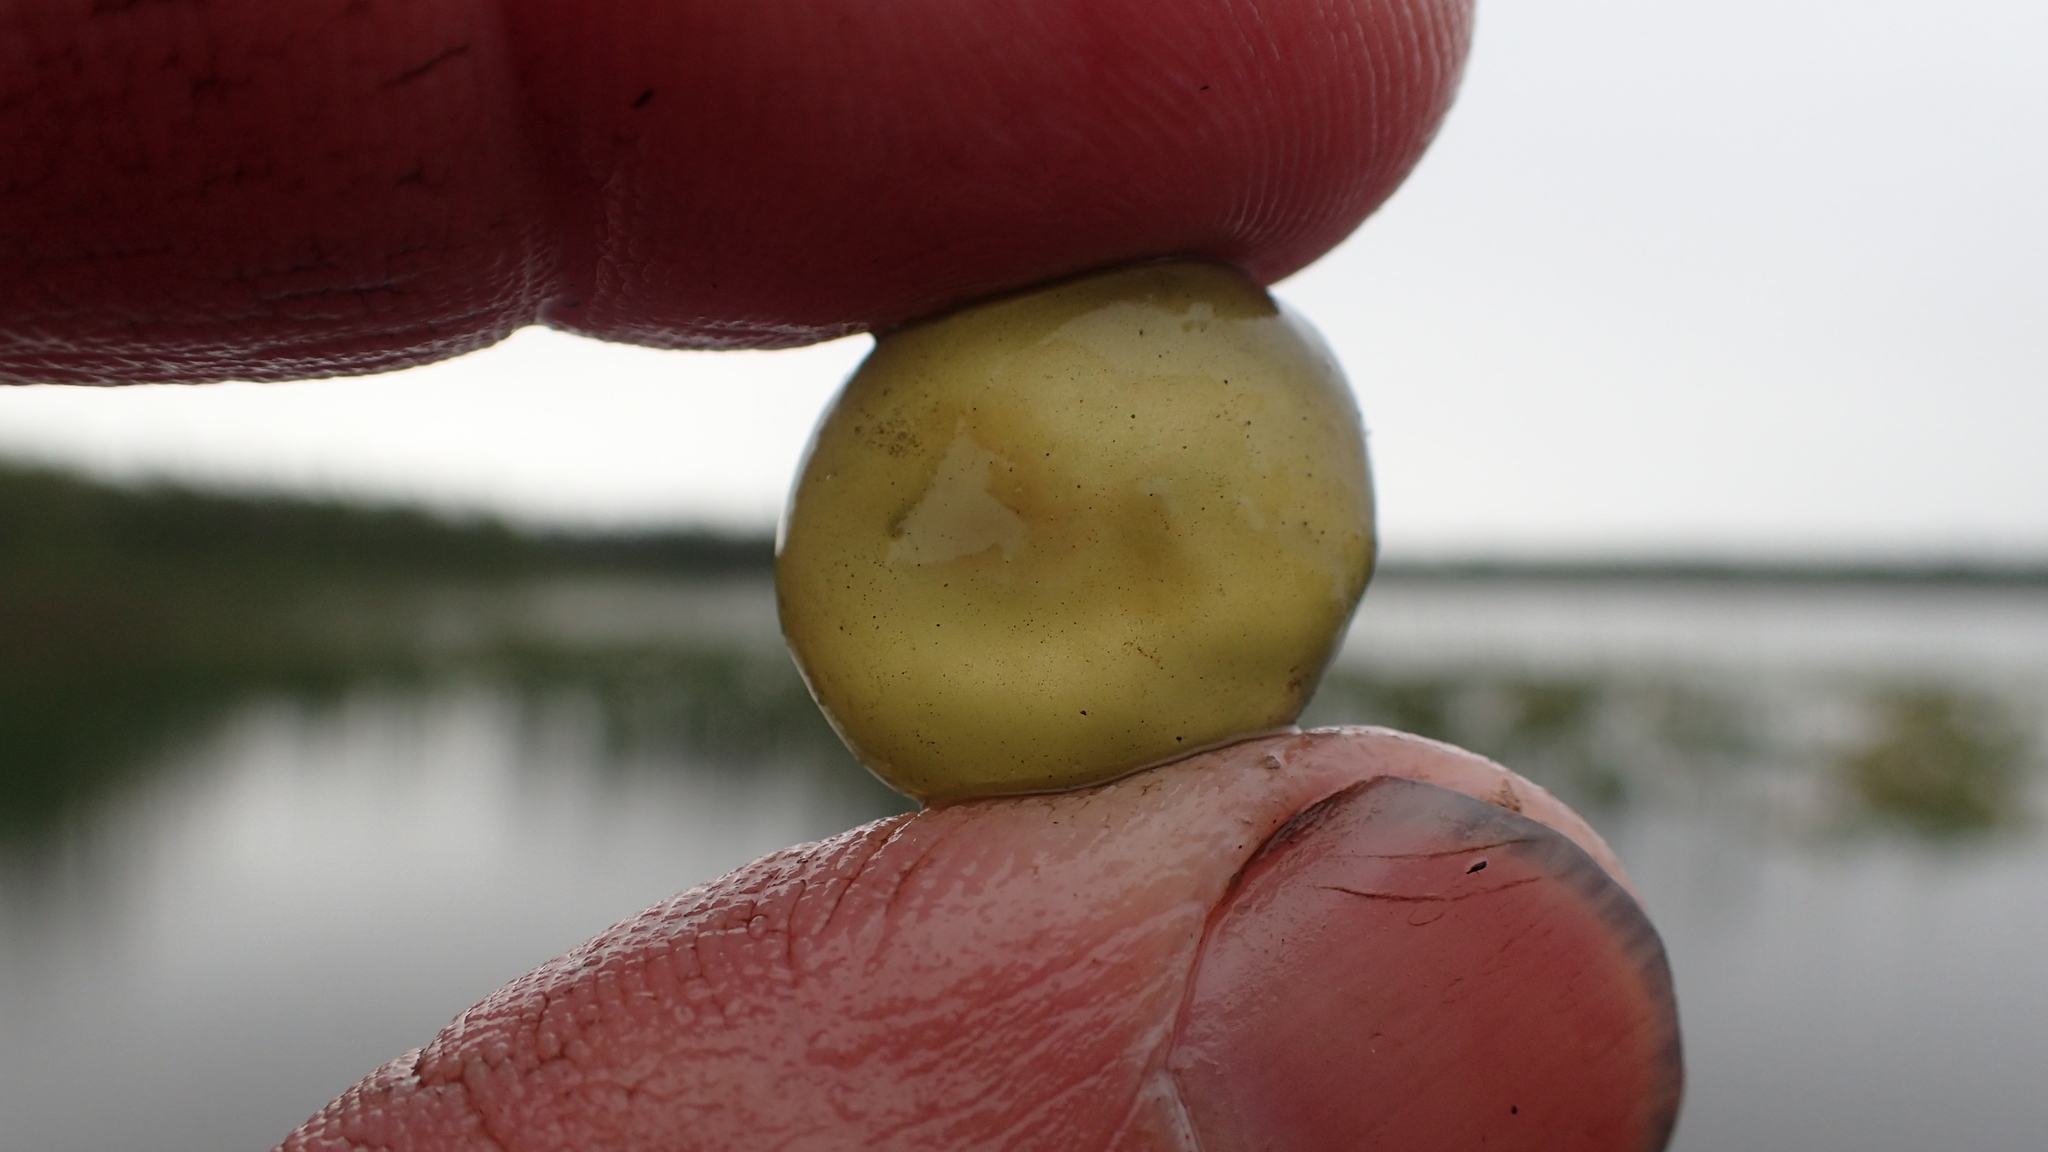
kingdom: Bacteria
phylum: Cyanobacteria
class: Cyanobacteriia
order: Cyanobacteriales
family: Nostocaceae
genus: Nostoc
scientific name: Nostoc pruniforme
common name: Mare's eggs
